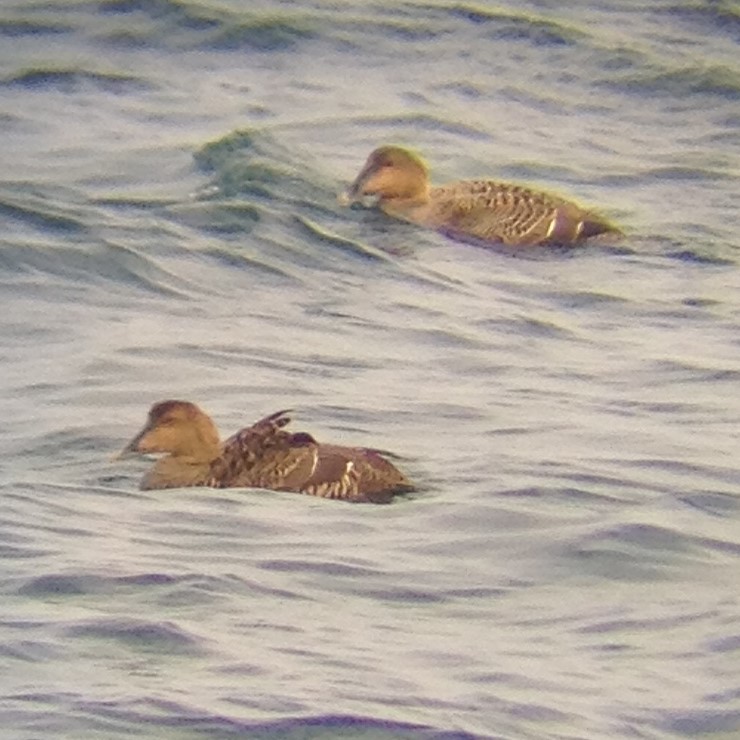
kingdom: Animalia
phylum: Chordata
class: Aves
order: Anseriformes
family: Anatidae
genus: Somateria
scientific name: Somateria mollissima
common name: Common eider
